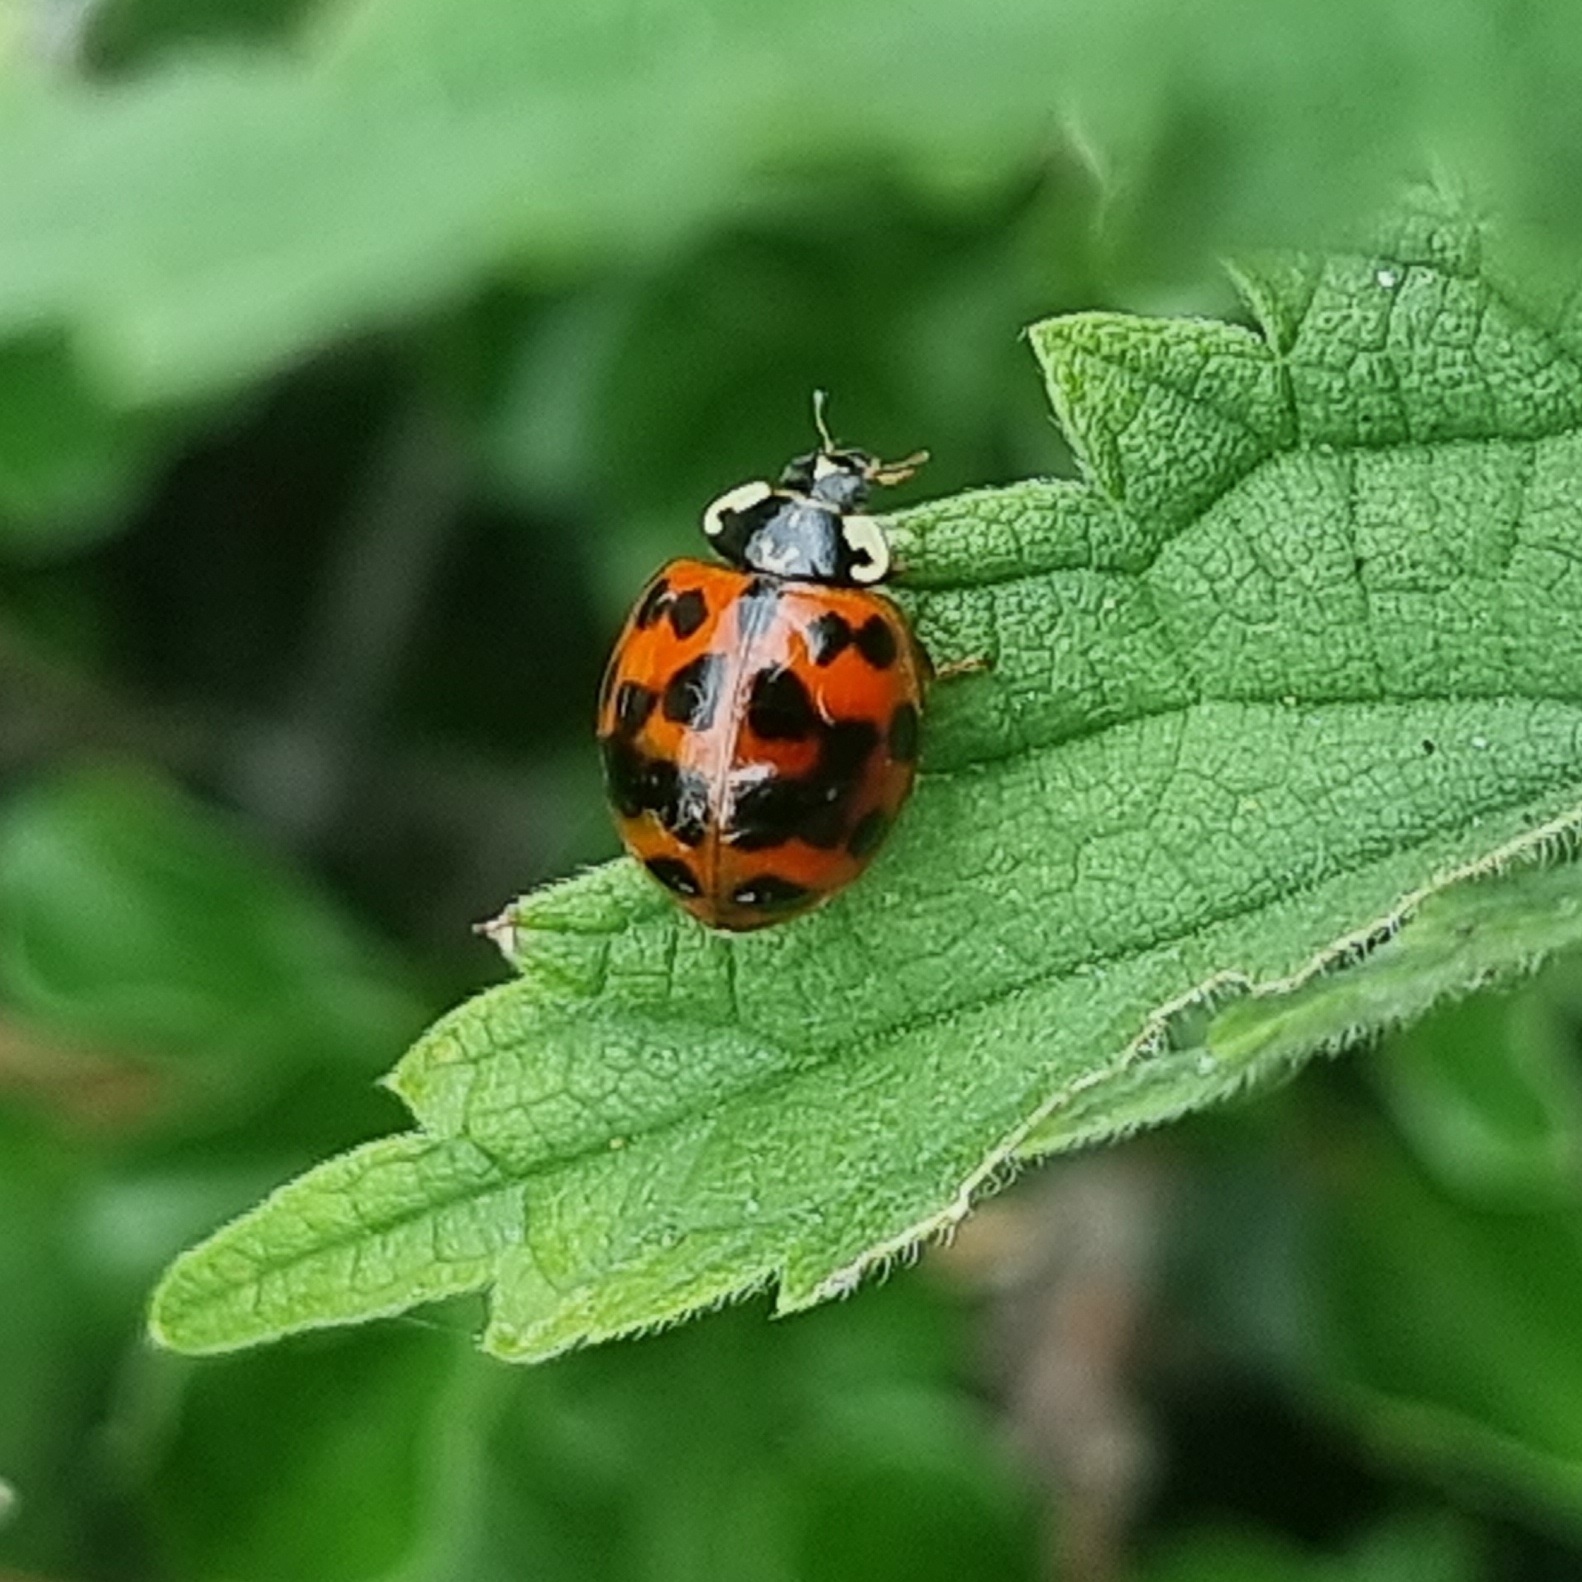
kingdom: Animalia
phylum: Arthropoda
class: Insecta
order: Coleoptera
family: Coccinellidae
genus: Harmonia
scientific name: Harmonia axyridis
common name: Harlequin ladybird
